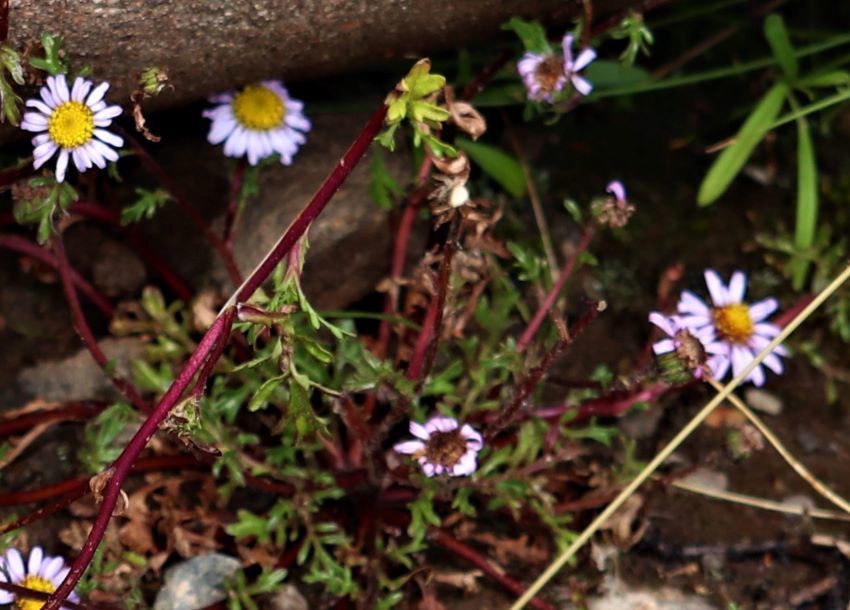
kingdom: Plantae
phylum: Tracheophyta
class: Magnoliopsida
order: Asterales
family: Asteraceae
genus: Afroaster
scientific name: Afroaster erucifolius
